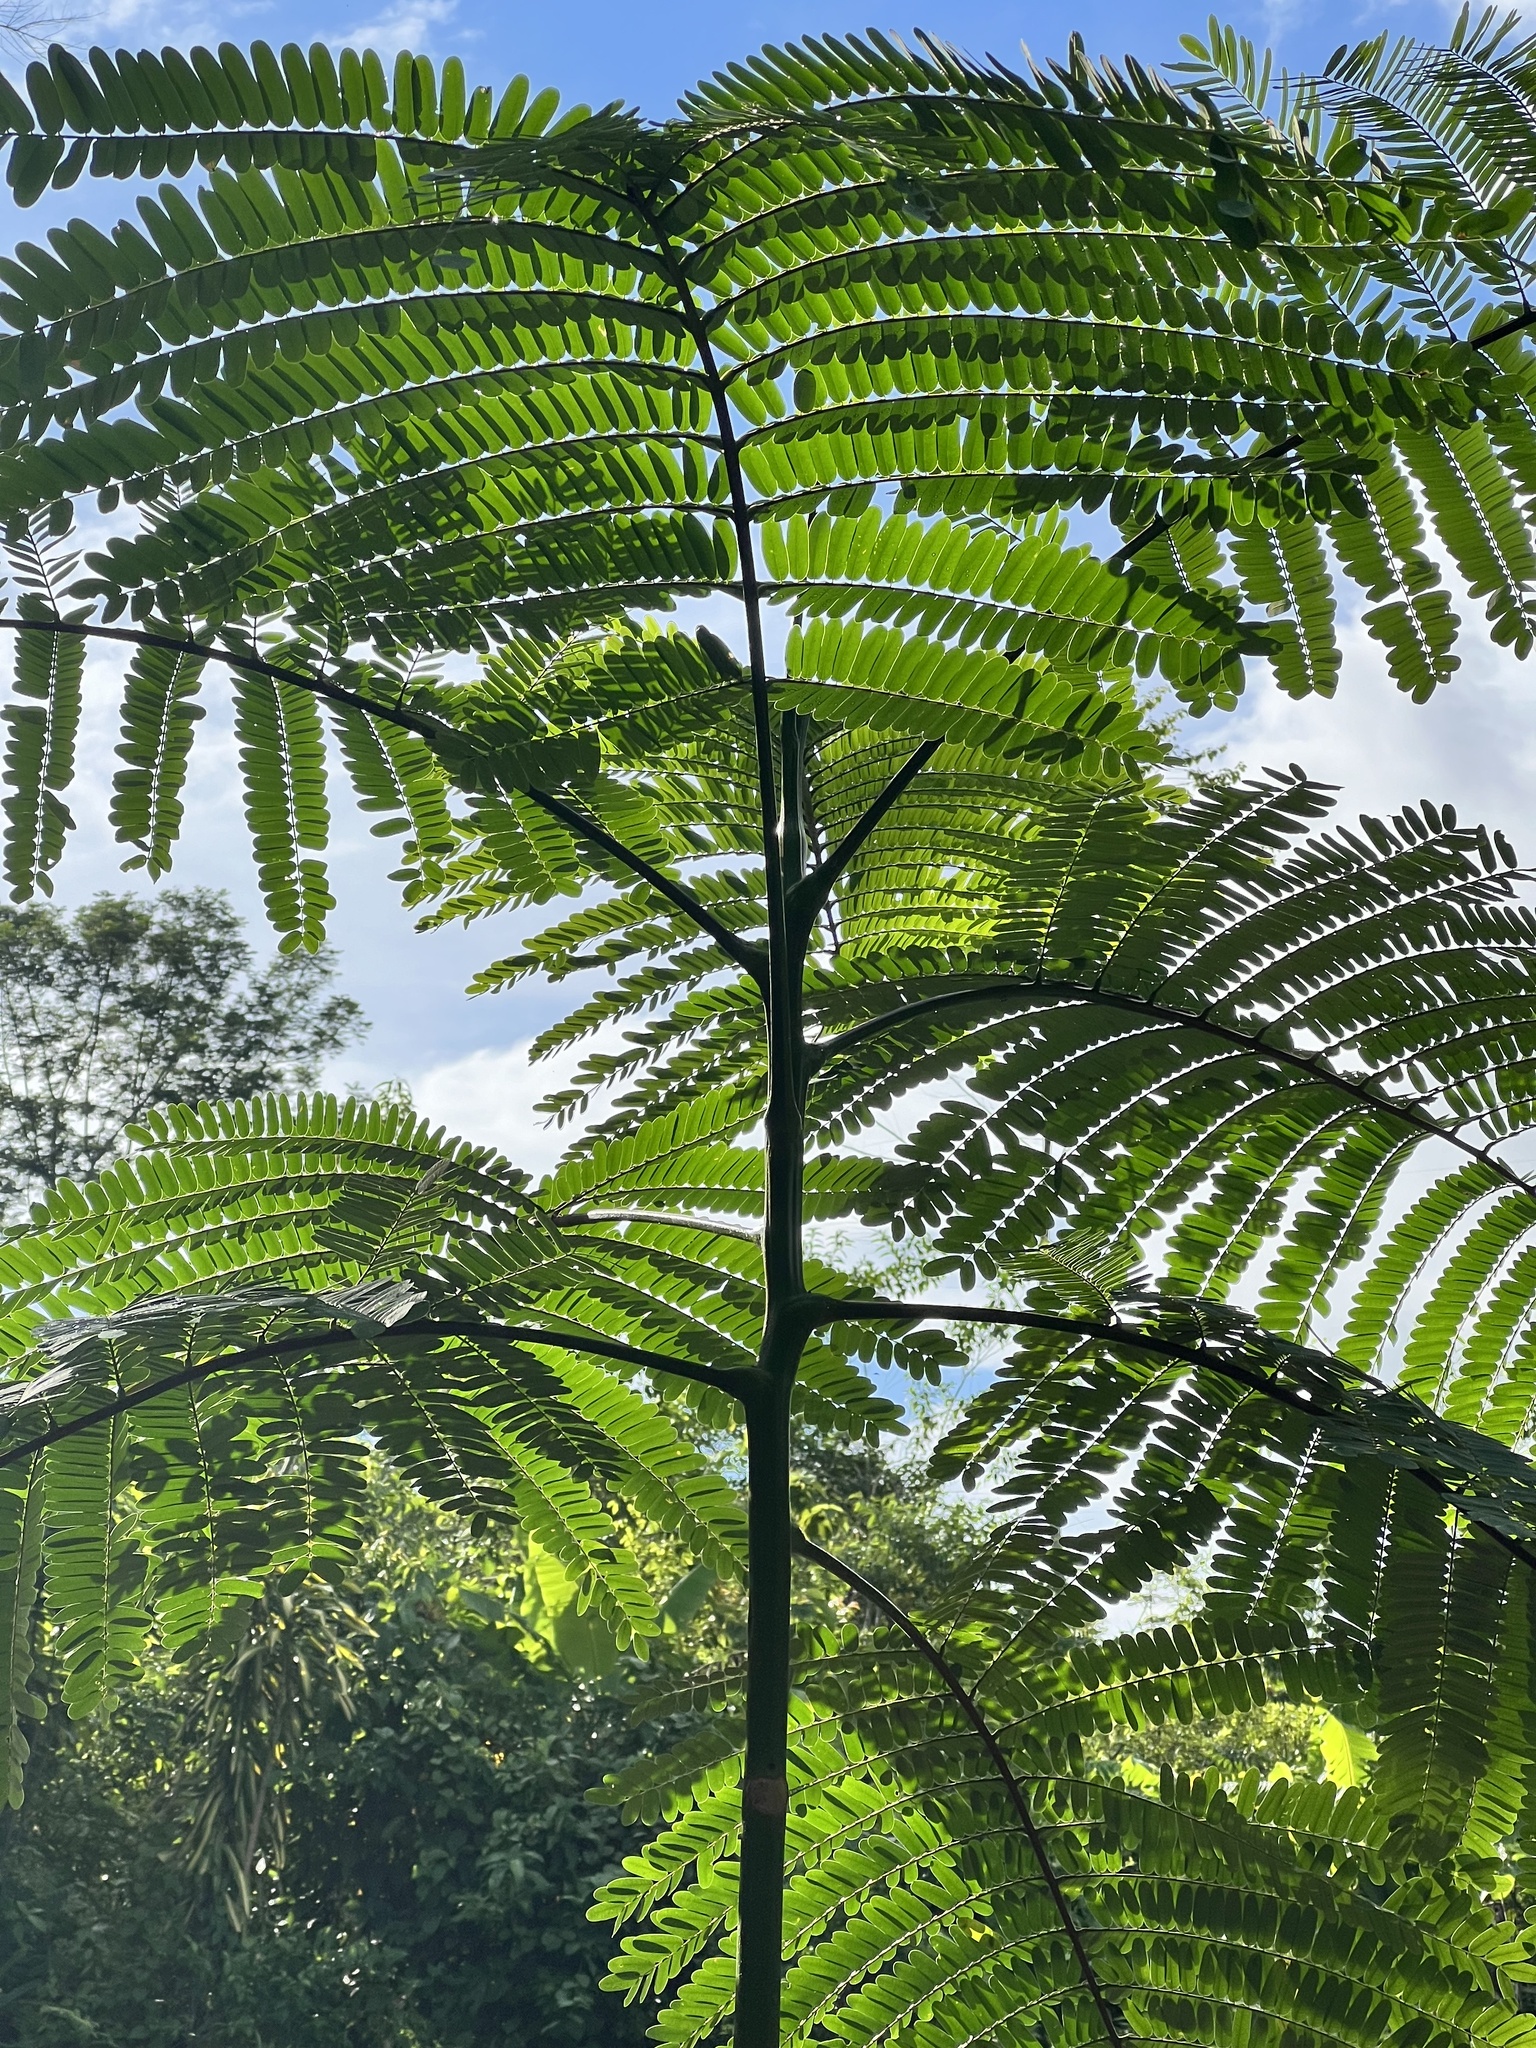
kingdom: Plantae
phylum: Tracheophyta
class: Magnoliopsida
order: Fabales
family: Fabaceae
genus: Schizolobium
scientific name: Schizolobium parahyba
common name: Brazilian firetree
